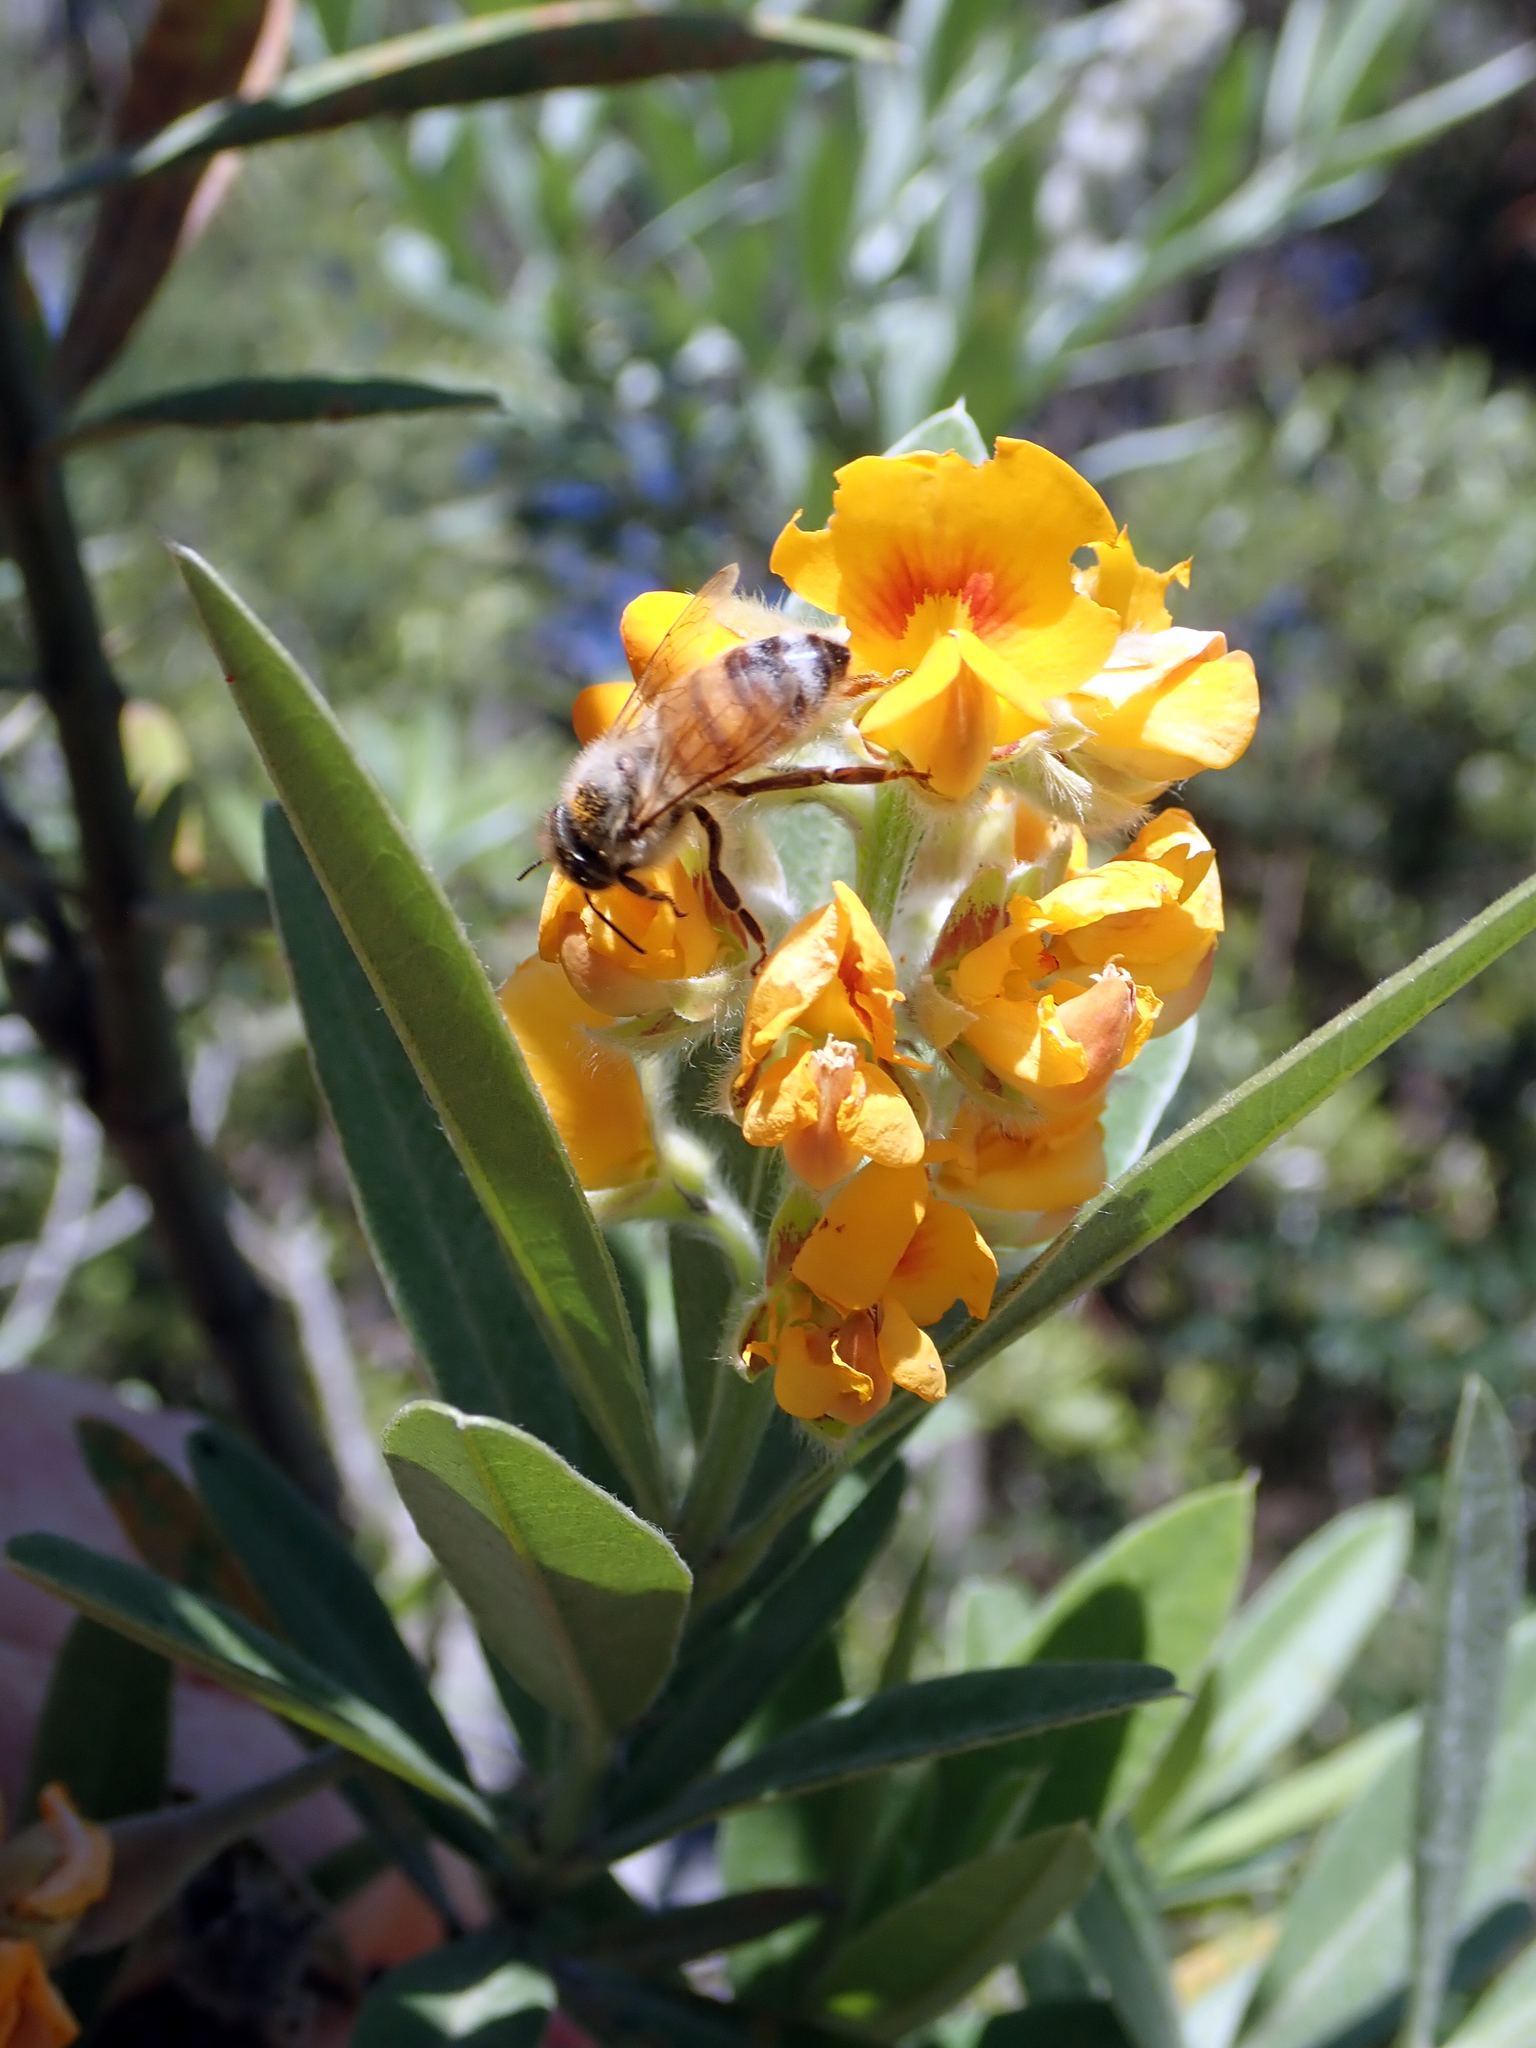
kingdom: Animalia
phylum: Arthropoda
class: Insecta
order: Hymenoptera
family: Apidae
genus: Apis
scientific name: Apis mellifera
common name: Honey bee
